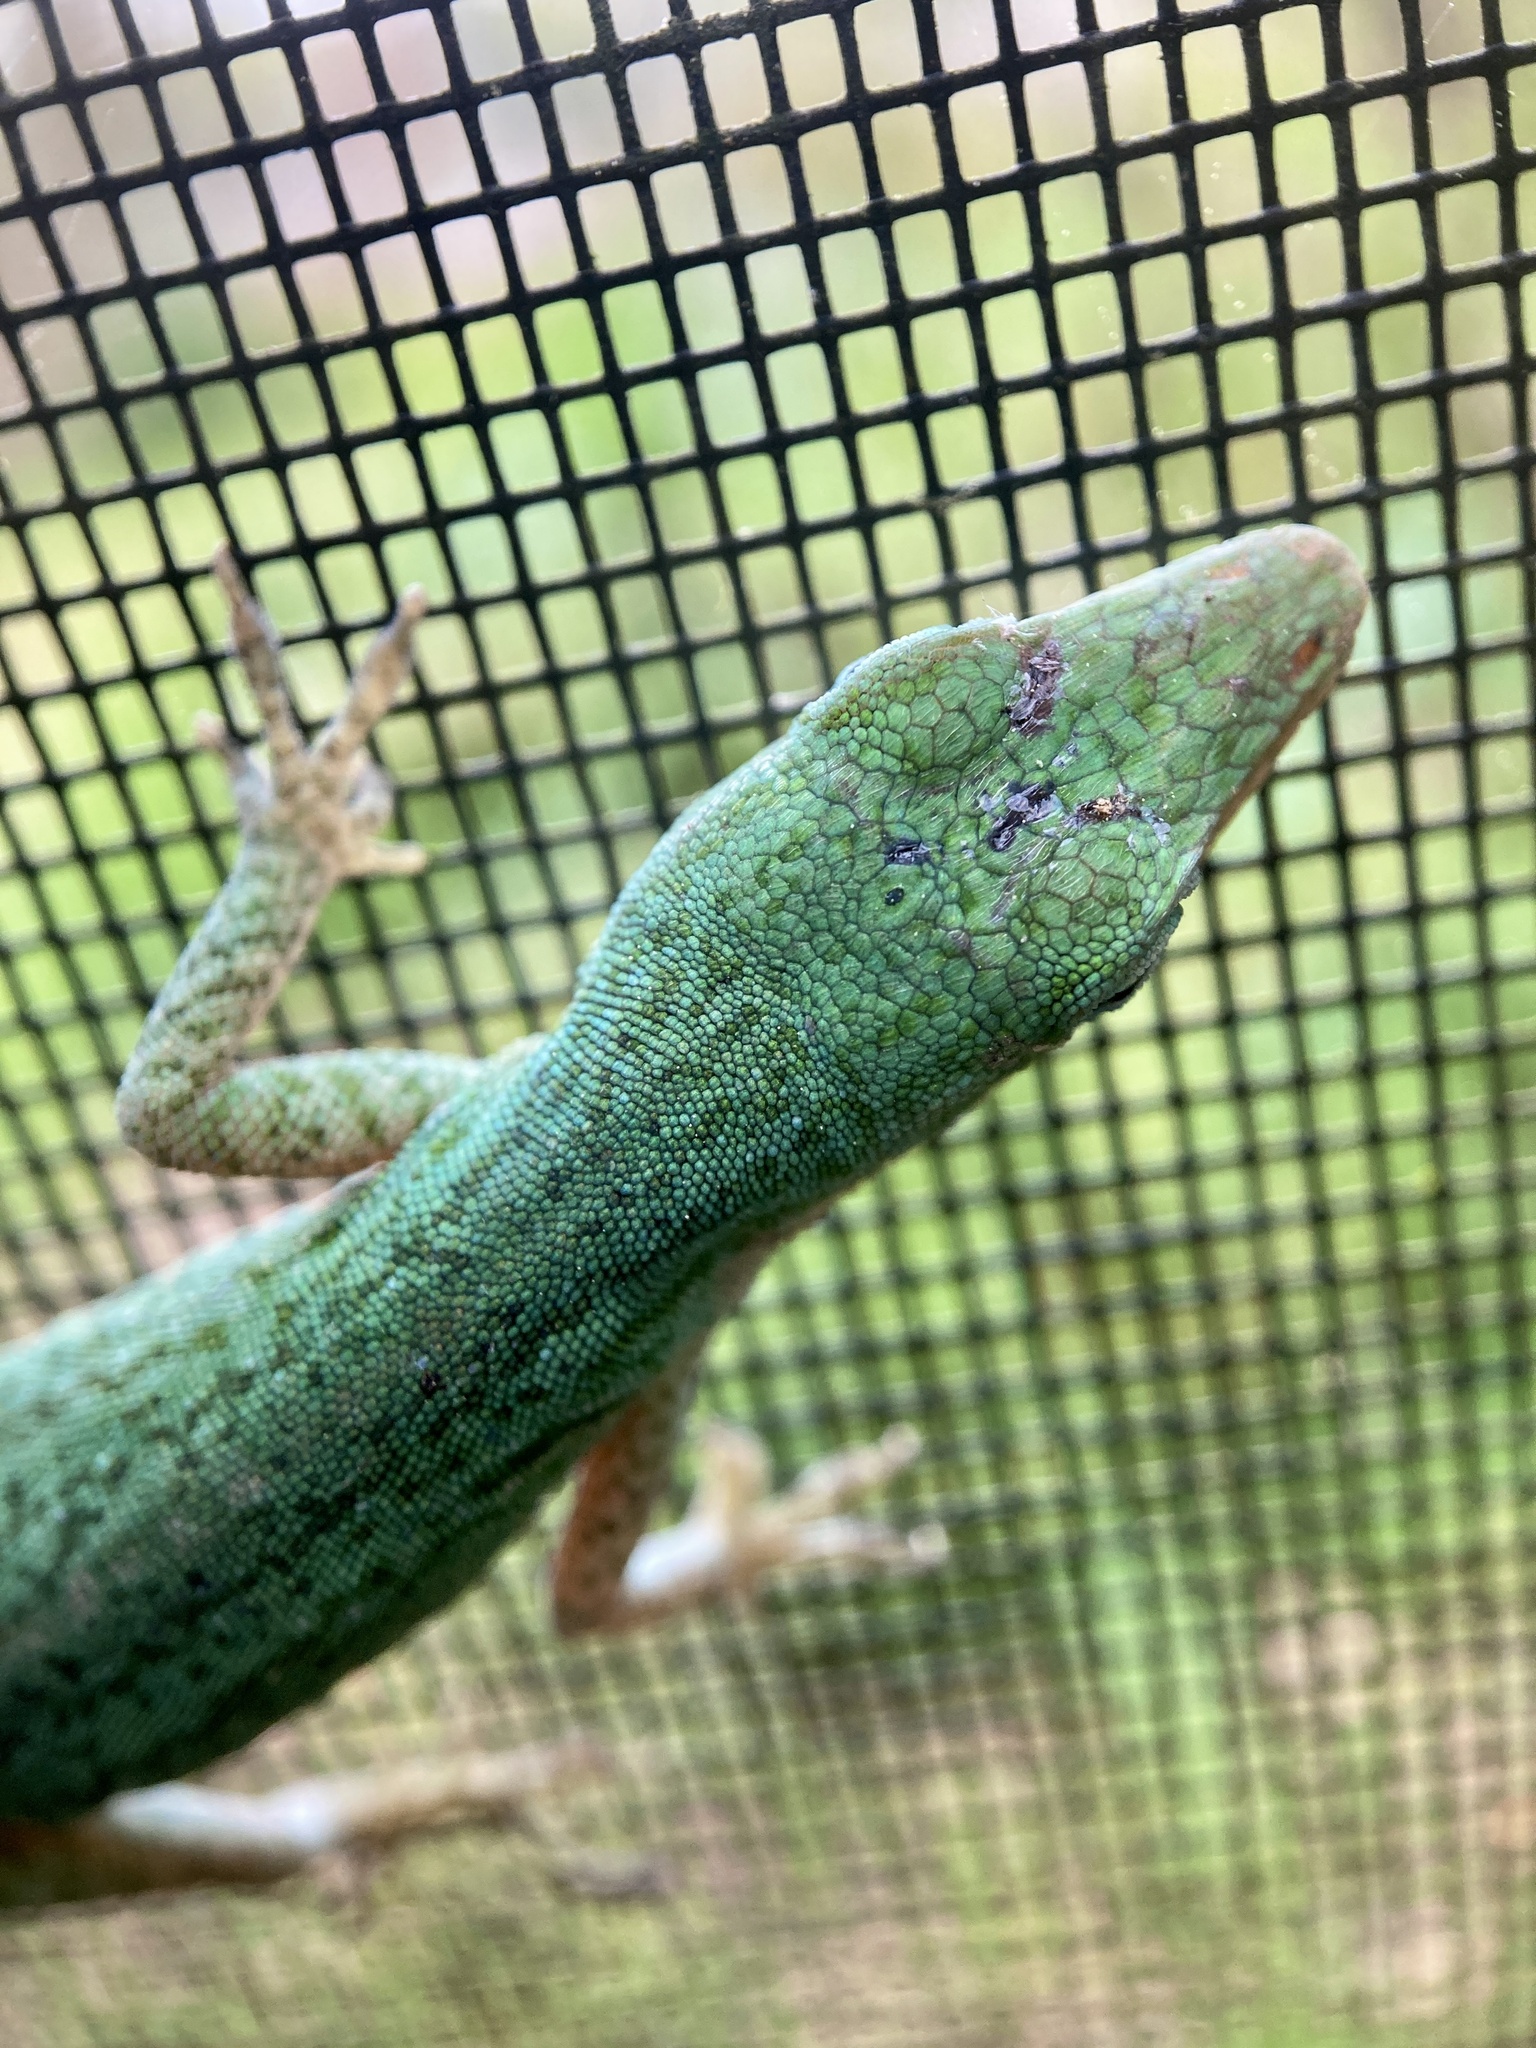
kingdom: Animalia
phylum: Chordata
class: Squamata
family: Dactyloidae
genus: Anolis
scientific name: Anolis carolinensis
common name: Green anole
